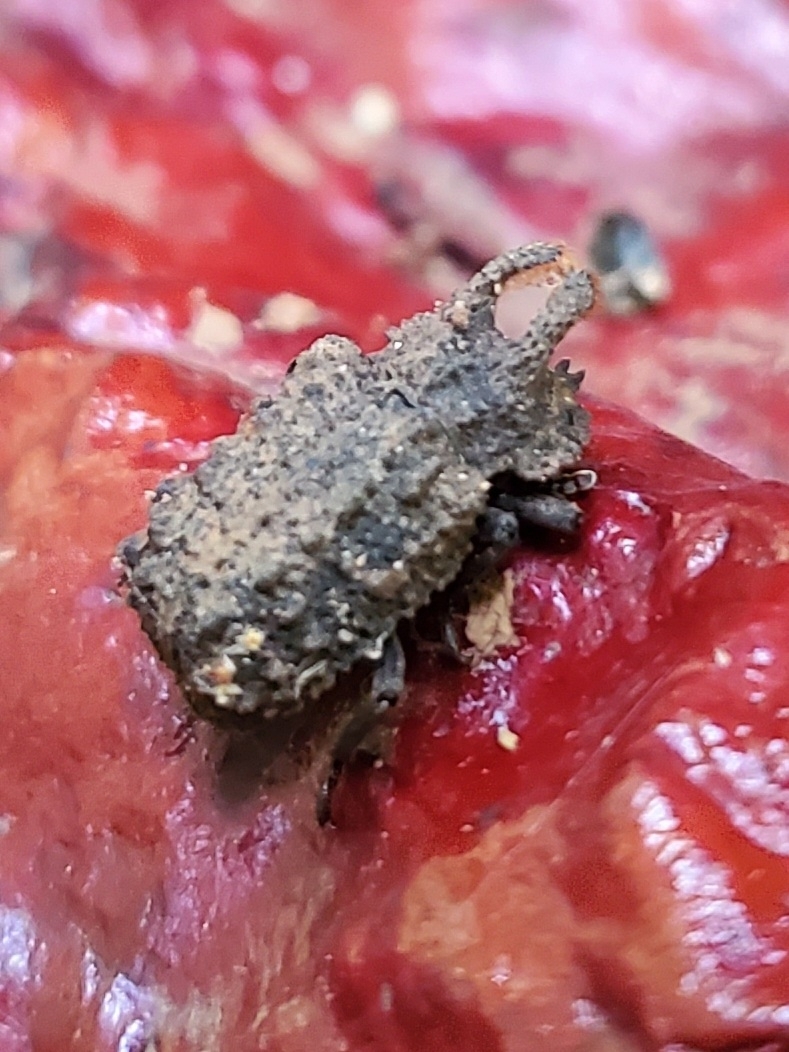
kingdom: Animalia
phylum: Arthropoda
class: Insecta
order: Coleoptera
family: Tenebrionidae
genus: Gnatocerus
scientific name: Gnatocerus cornutus
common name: Broad-horned flour beetle
